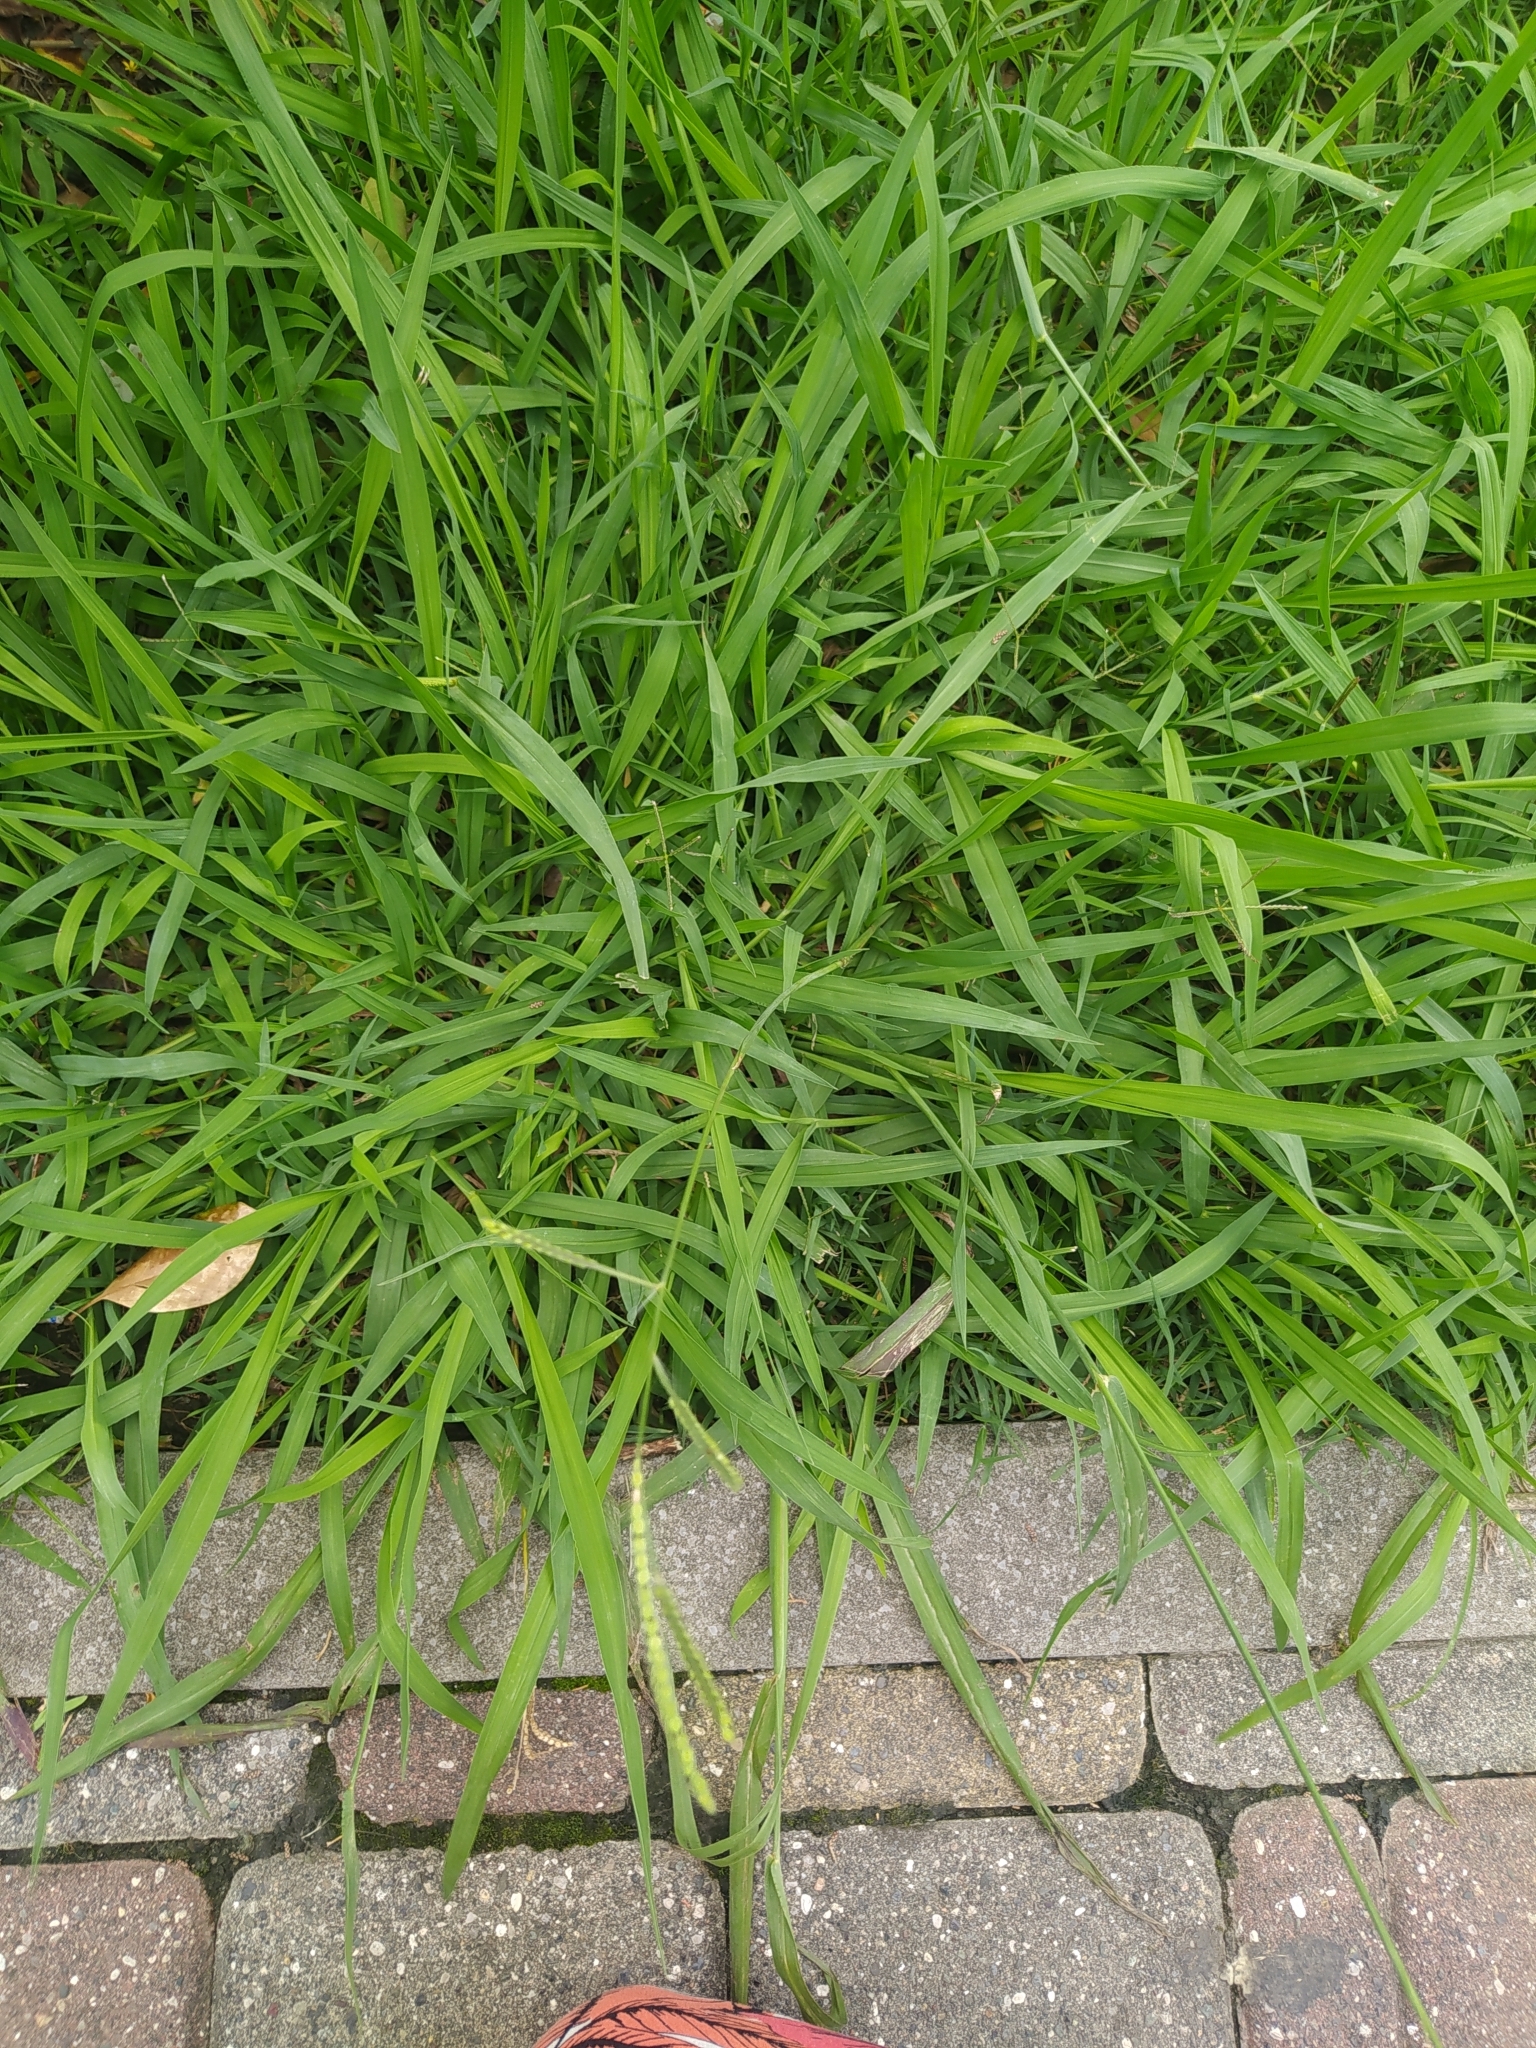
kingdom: Plantae
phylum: Tracheophyta
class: Liliopsida
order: Poales
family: Poaceae
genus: Paspalum
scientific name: Paspalum dilatatum
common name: Dallisgrass
